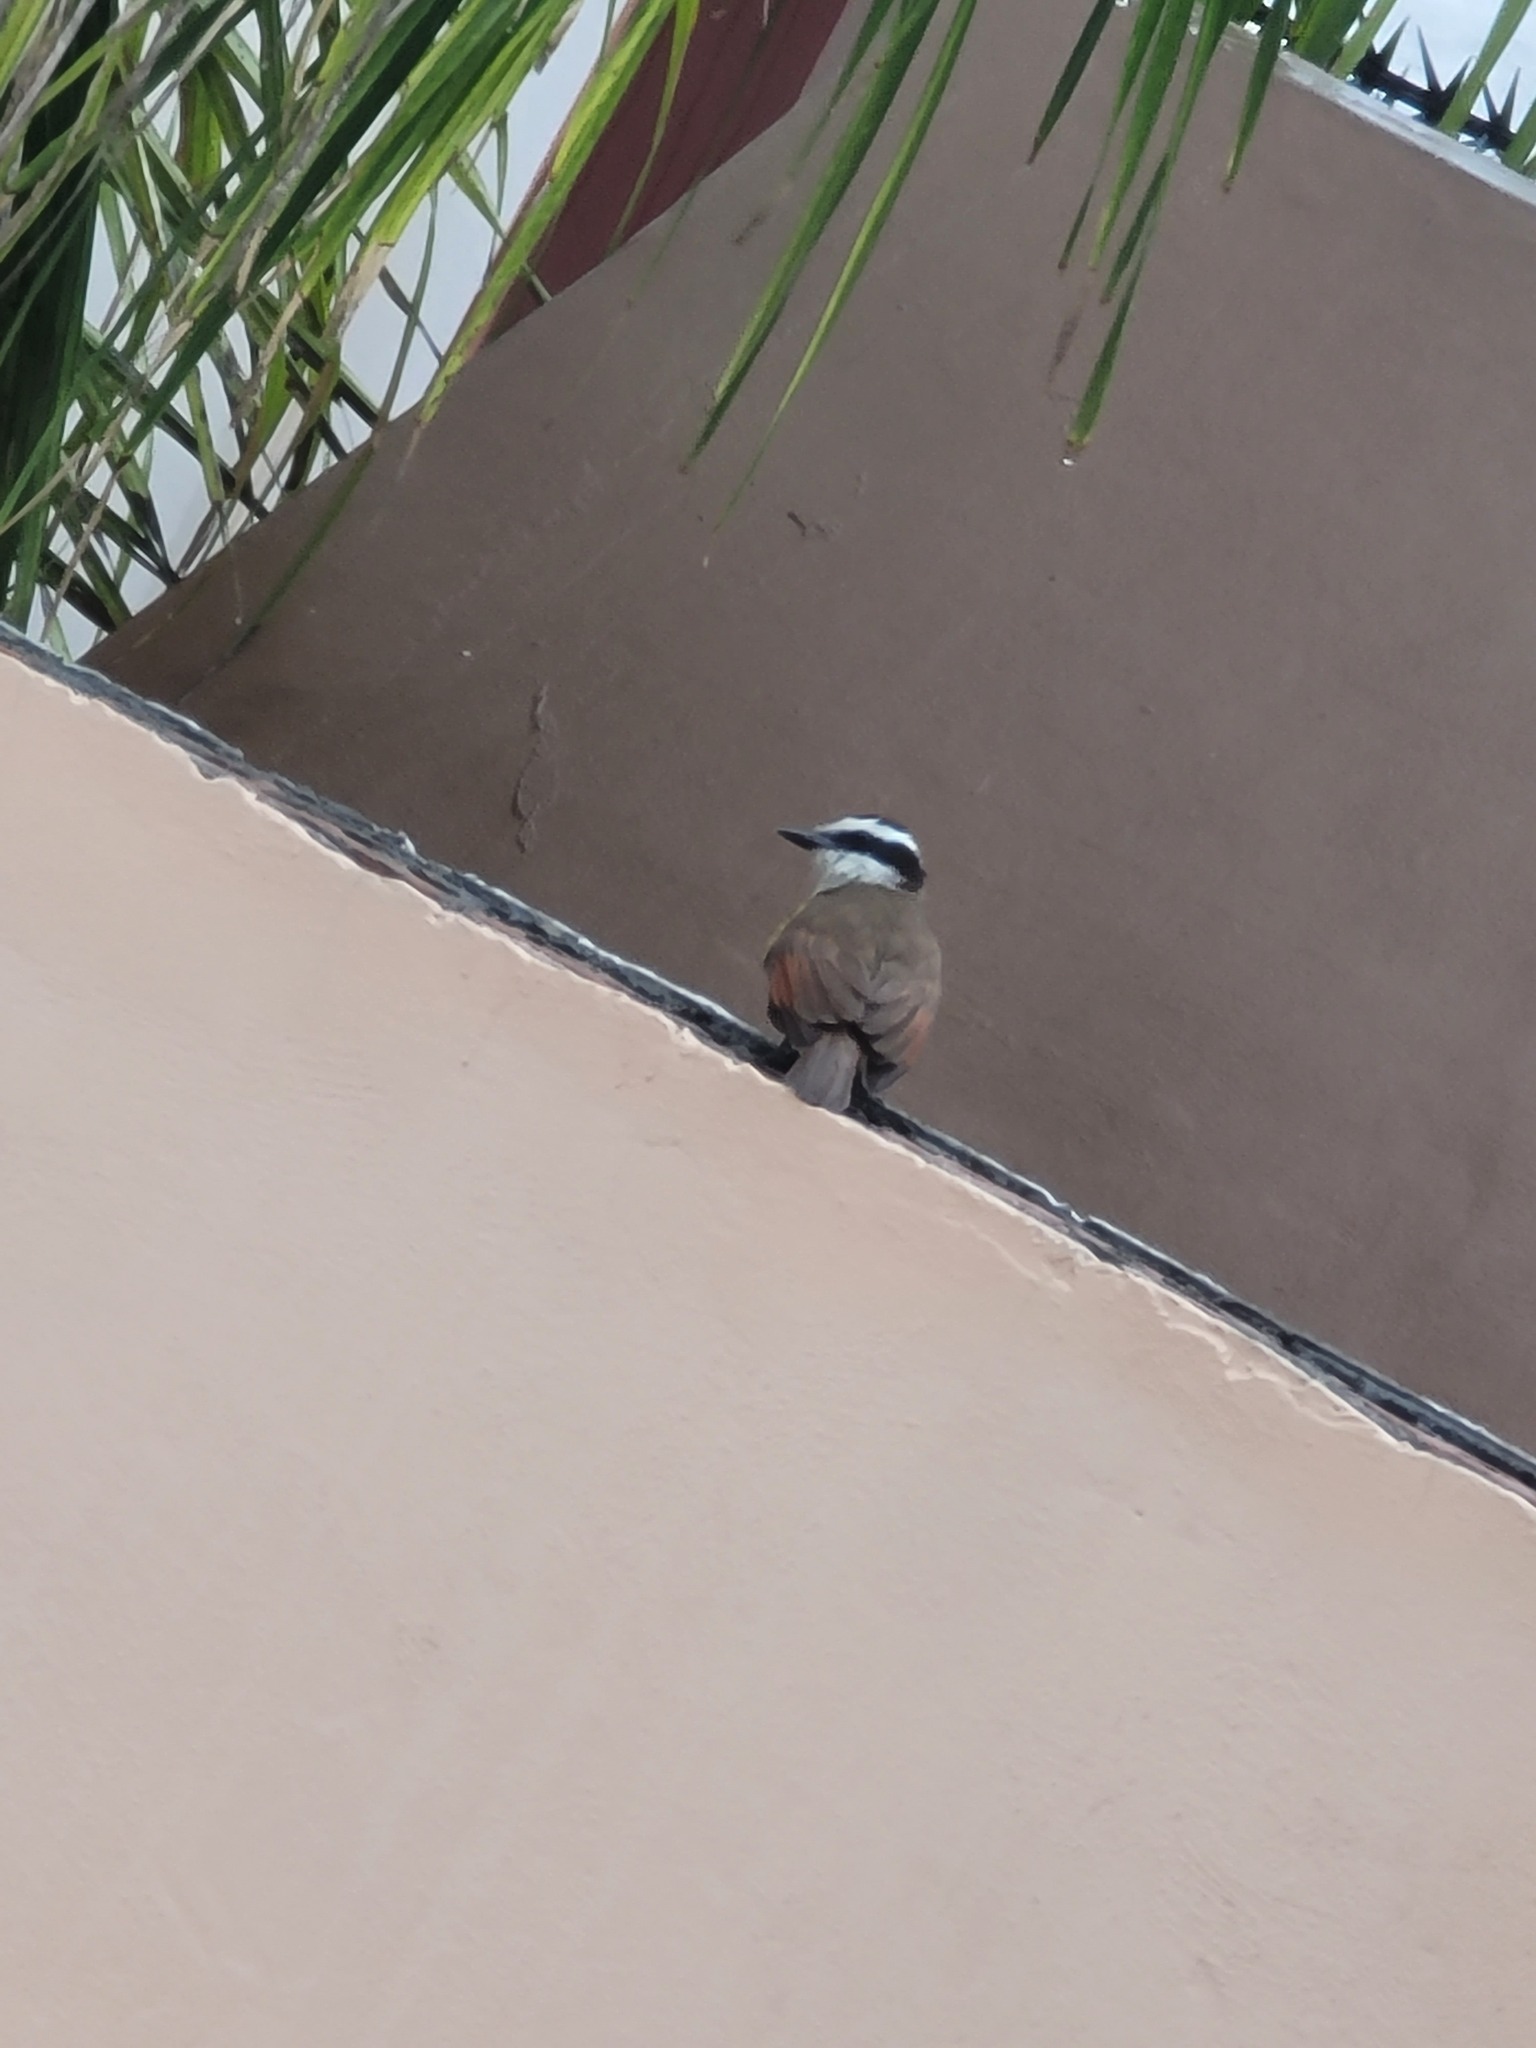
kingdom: Animalia
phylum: Chordata
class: Aves
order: Passeriformes
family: Tyrannidae
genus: Pitangus
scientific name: Pitangus sulphuratus
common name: Great kiskadee
